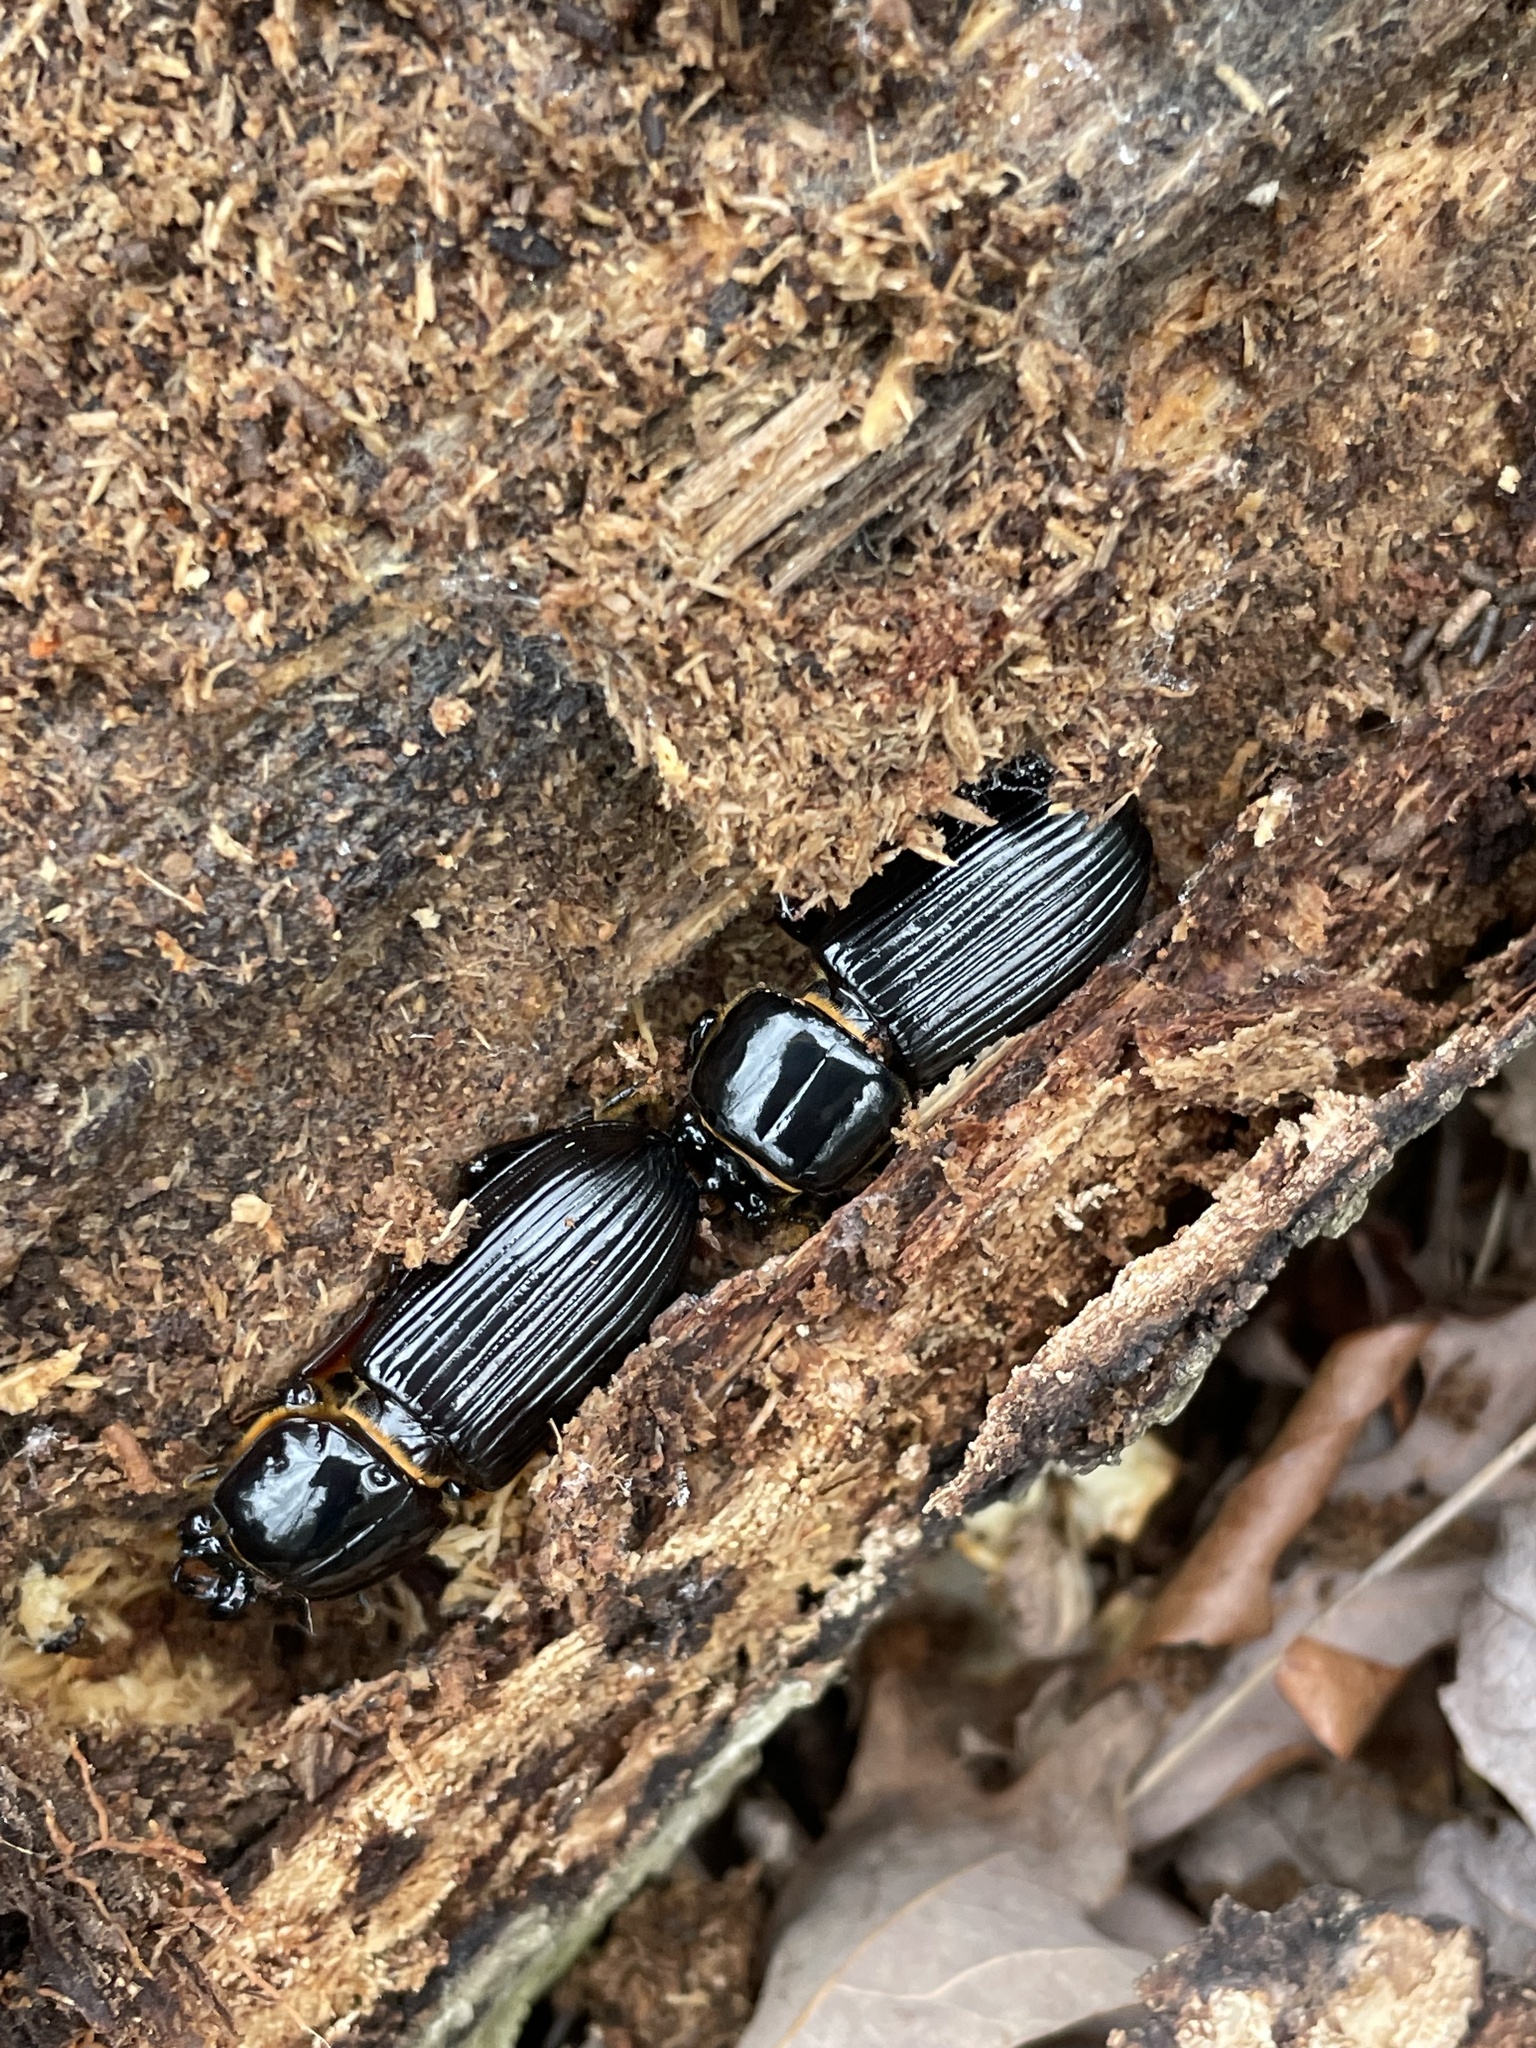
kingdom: Animalia
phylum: Arthropoda
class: Insecta
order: Coleoptera
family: Passalidae
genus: Odontotaenius
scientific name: Odontotaenius disjunctus
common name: Patent leather beetle
